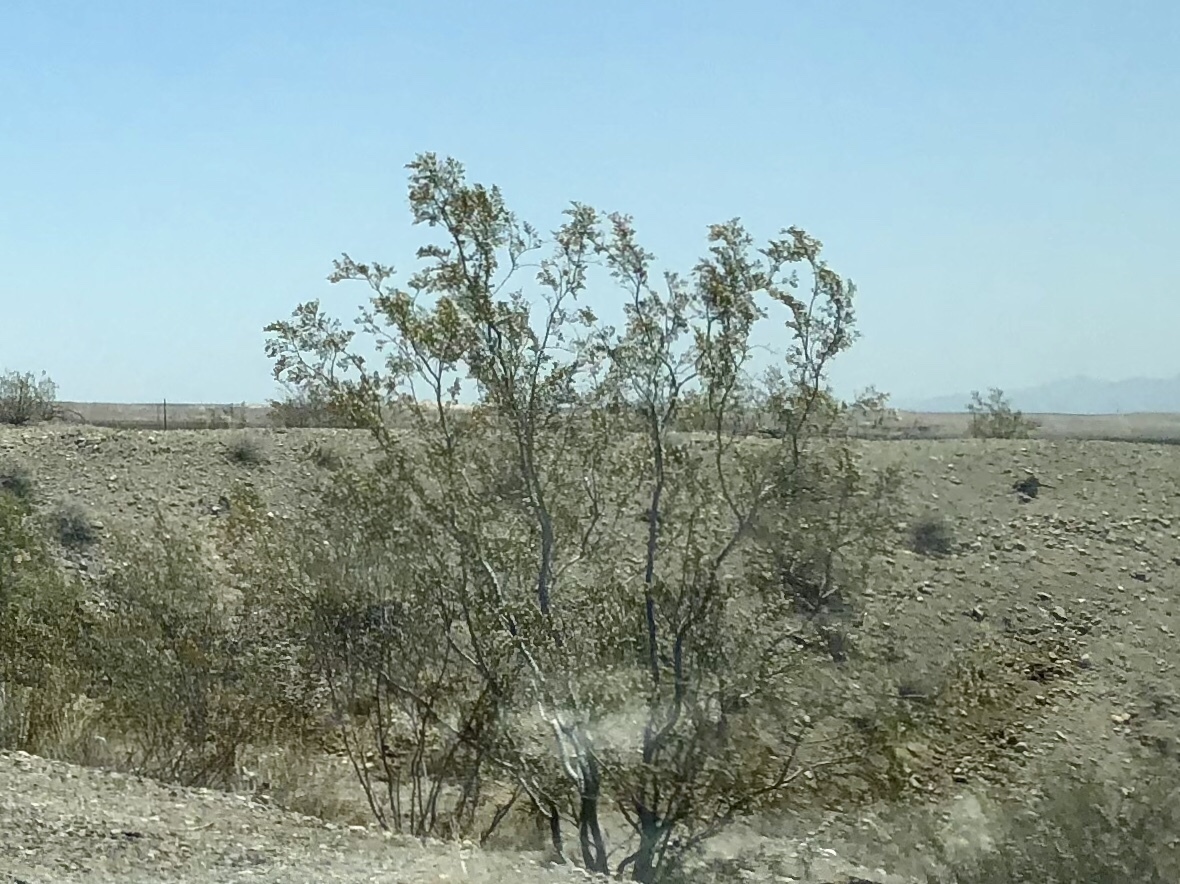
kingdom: Plantae
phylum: Tracheophyta
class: Magnoliopsida
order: Zygophyllales
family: Zygophyllaceae
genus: Larrea
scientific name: Larrea tridentata
